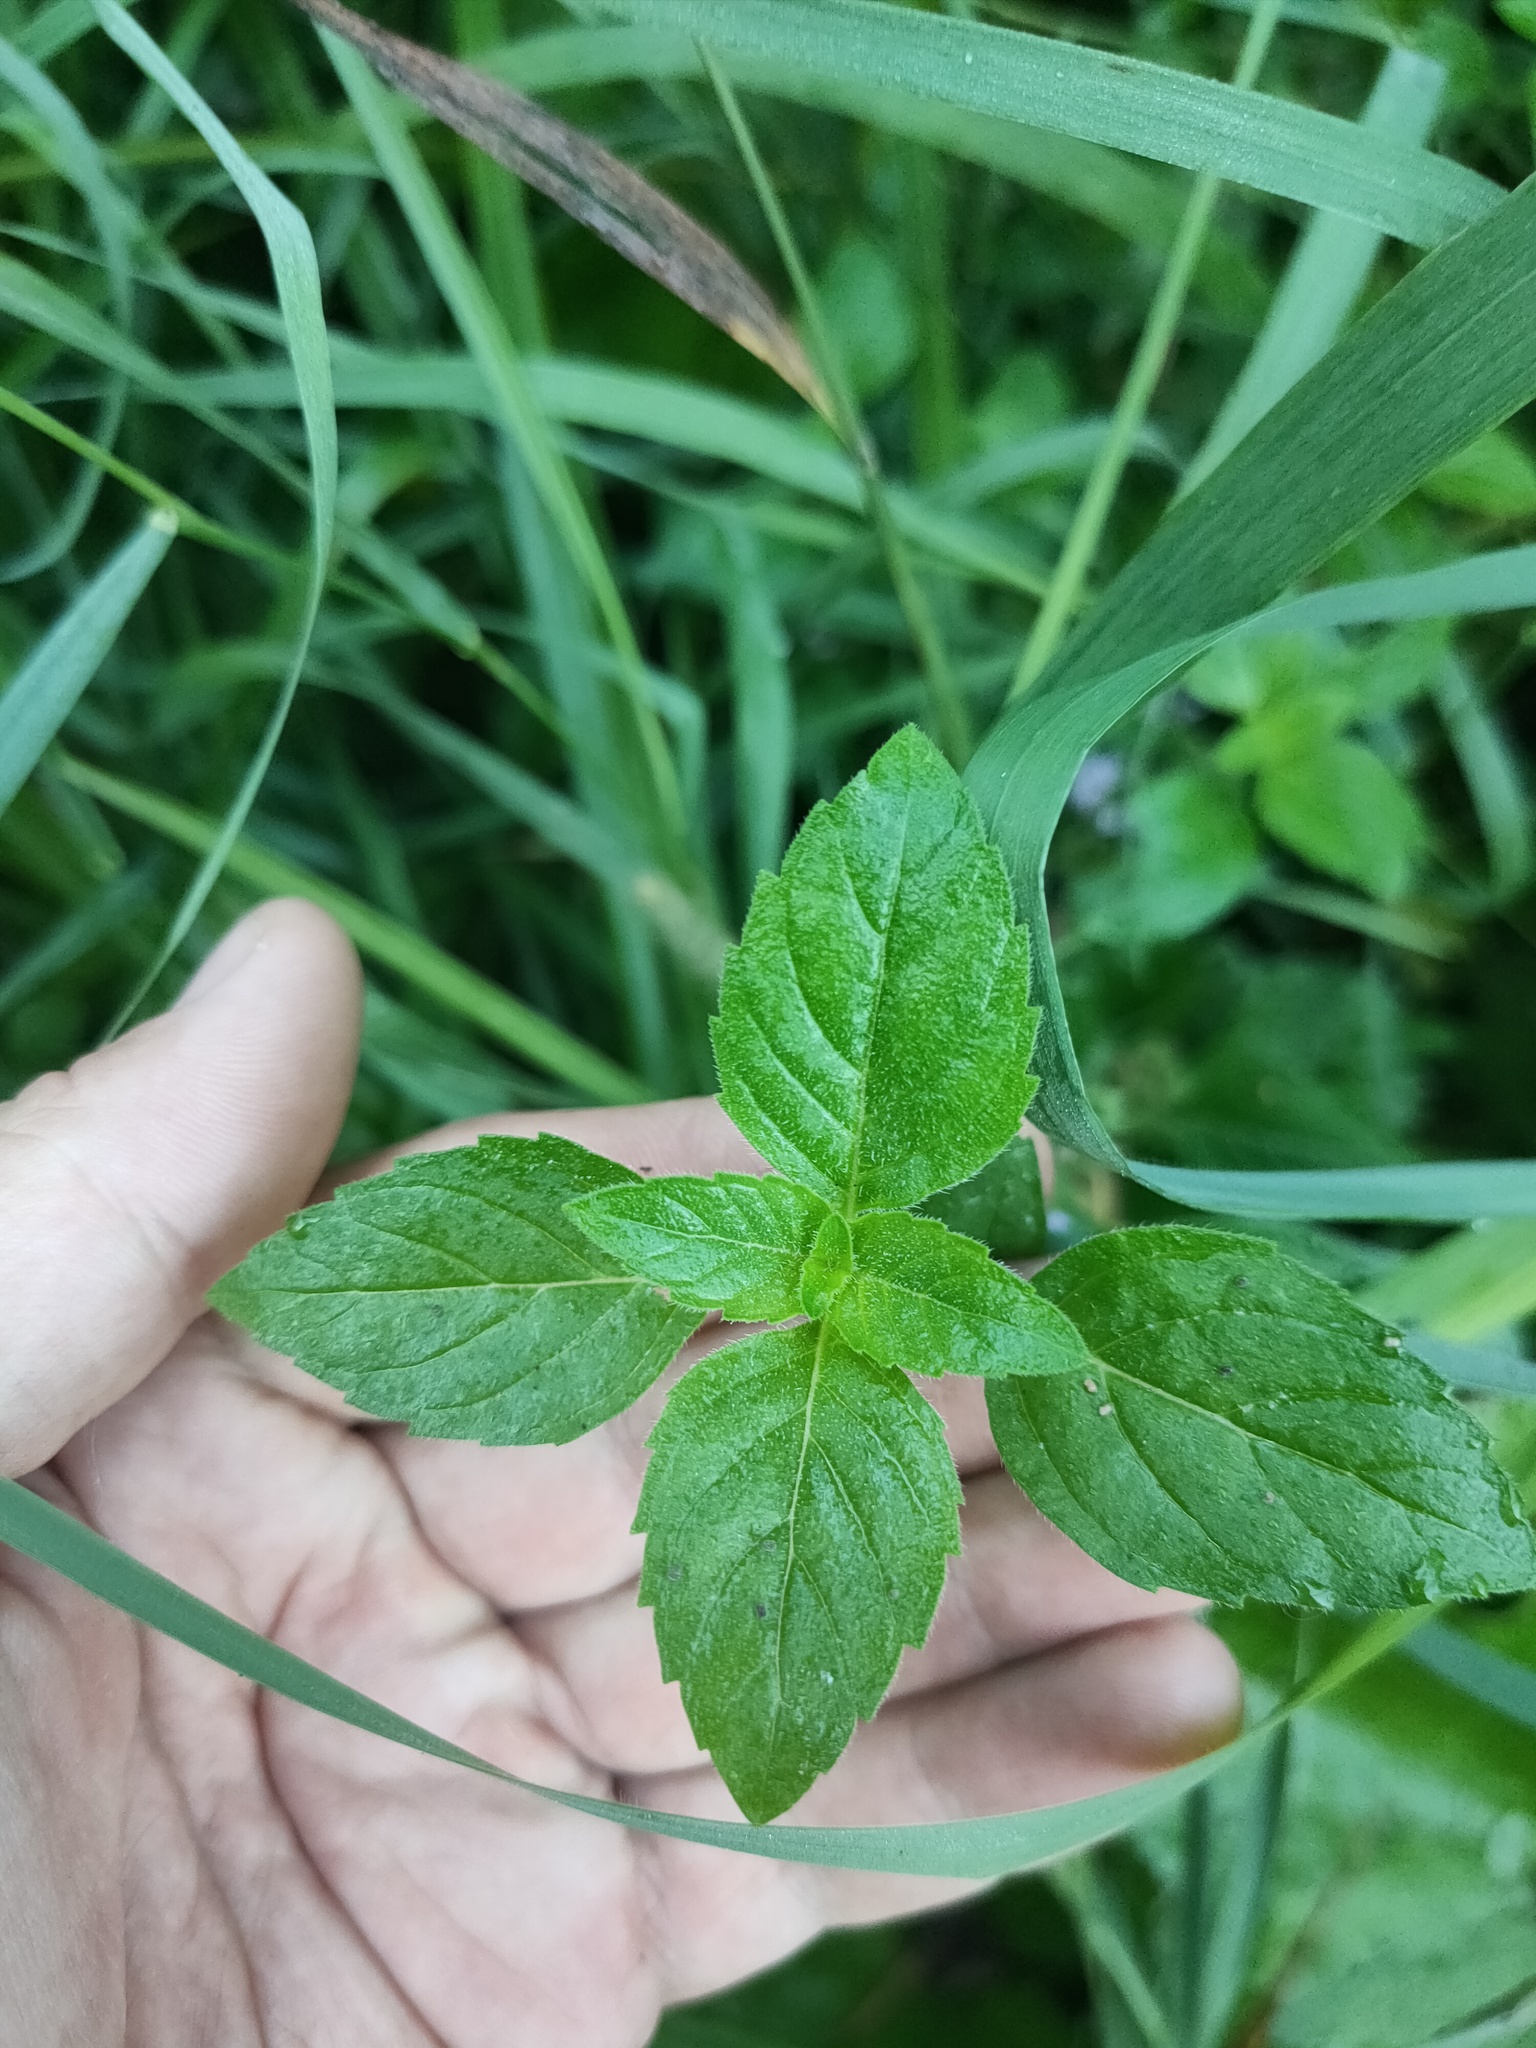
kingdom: Plantae
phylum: Tracheophyta
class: Magnoliopsida
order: Lamiales
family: Lamiaceae
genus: Mentha
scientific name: Mentha arvensis
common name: Corn mint
